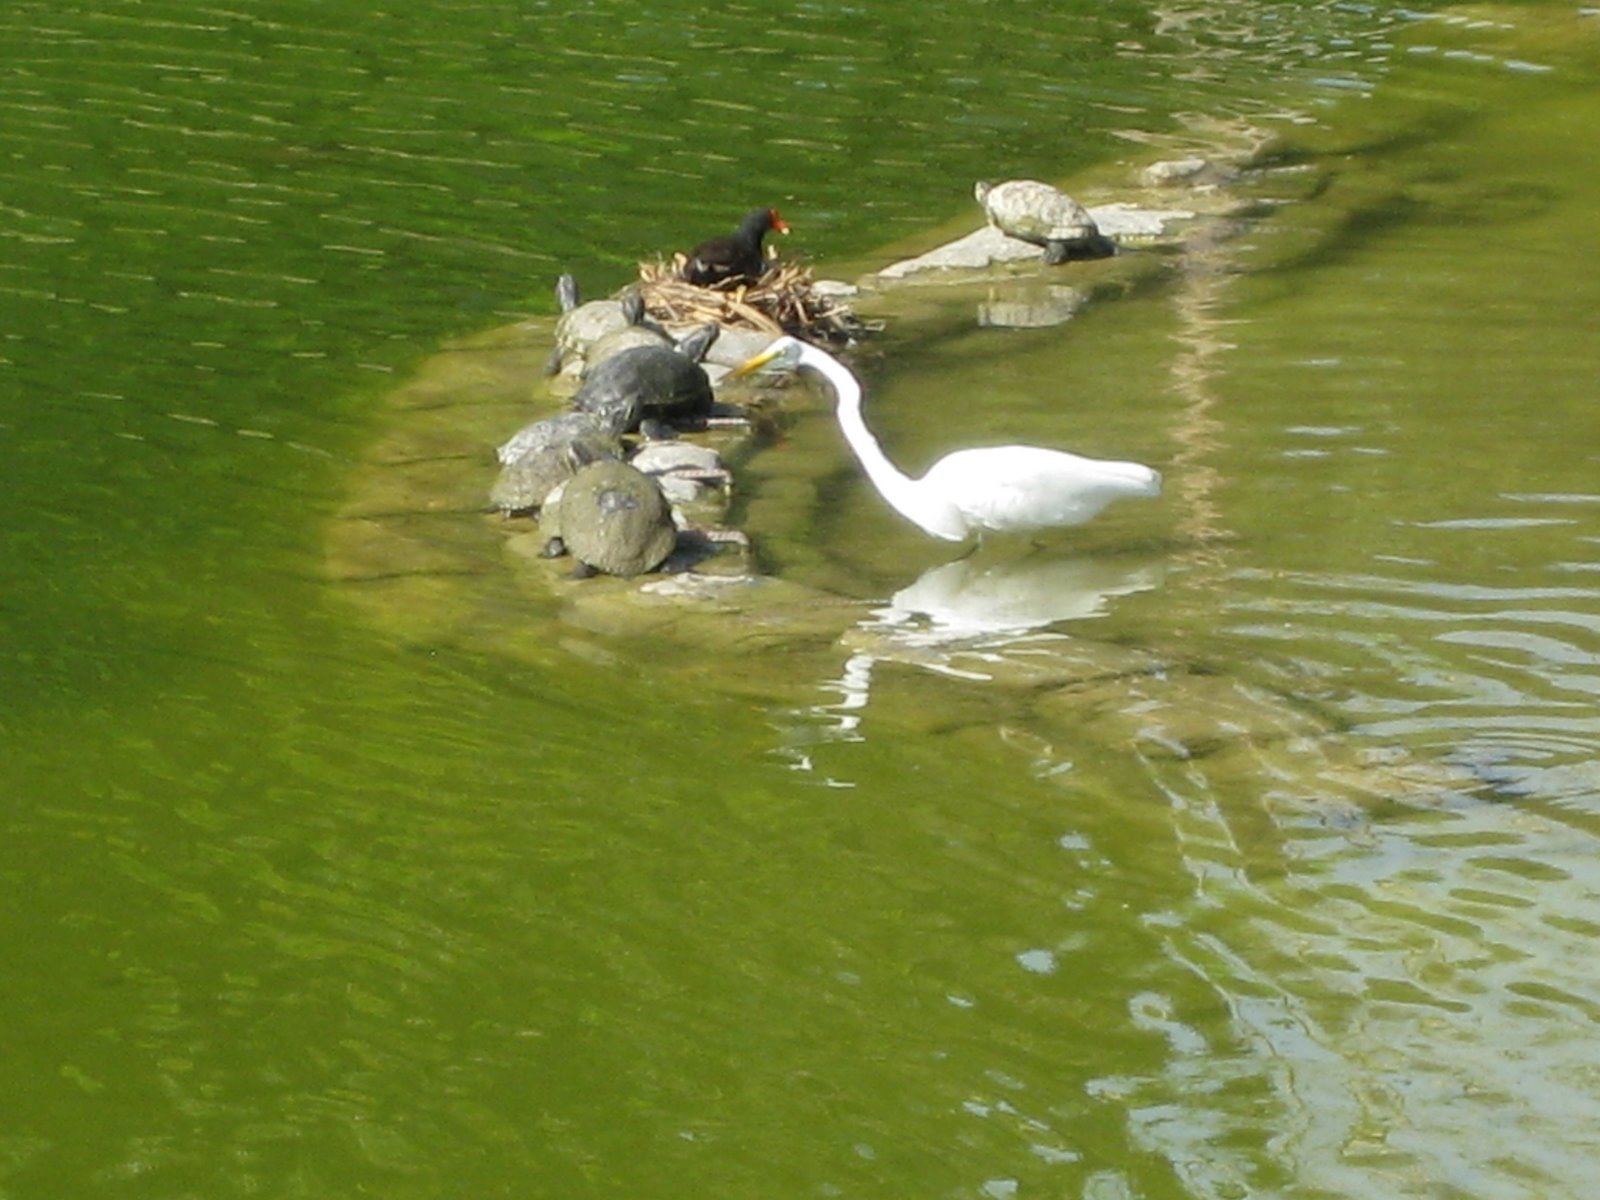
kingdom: Animalia
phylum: Chordata
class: Aves
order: Gruiformes
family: Rallidae
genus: Gallinula
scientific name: Gallinula chloropus
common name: Common moorhen
